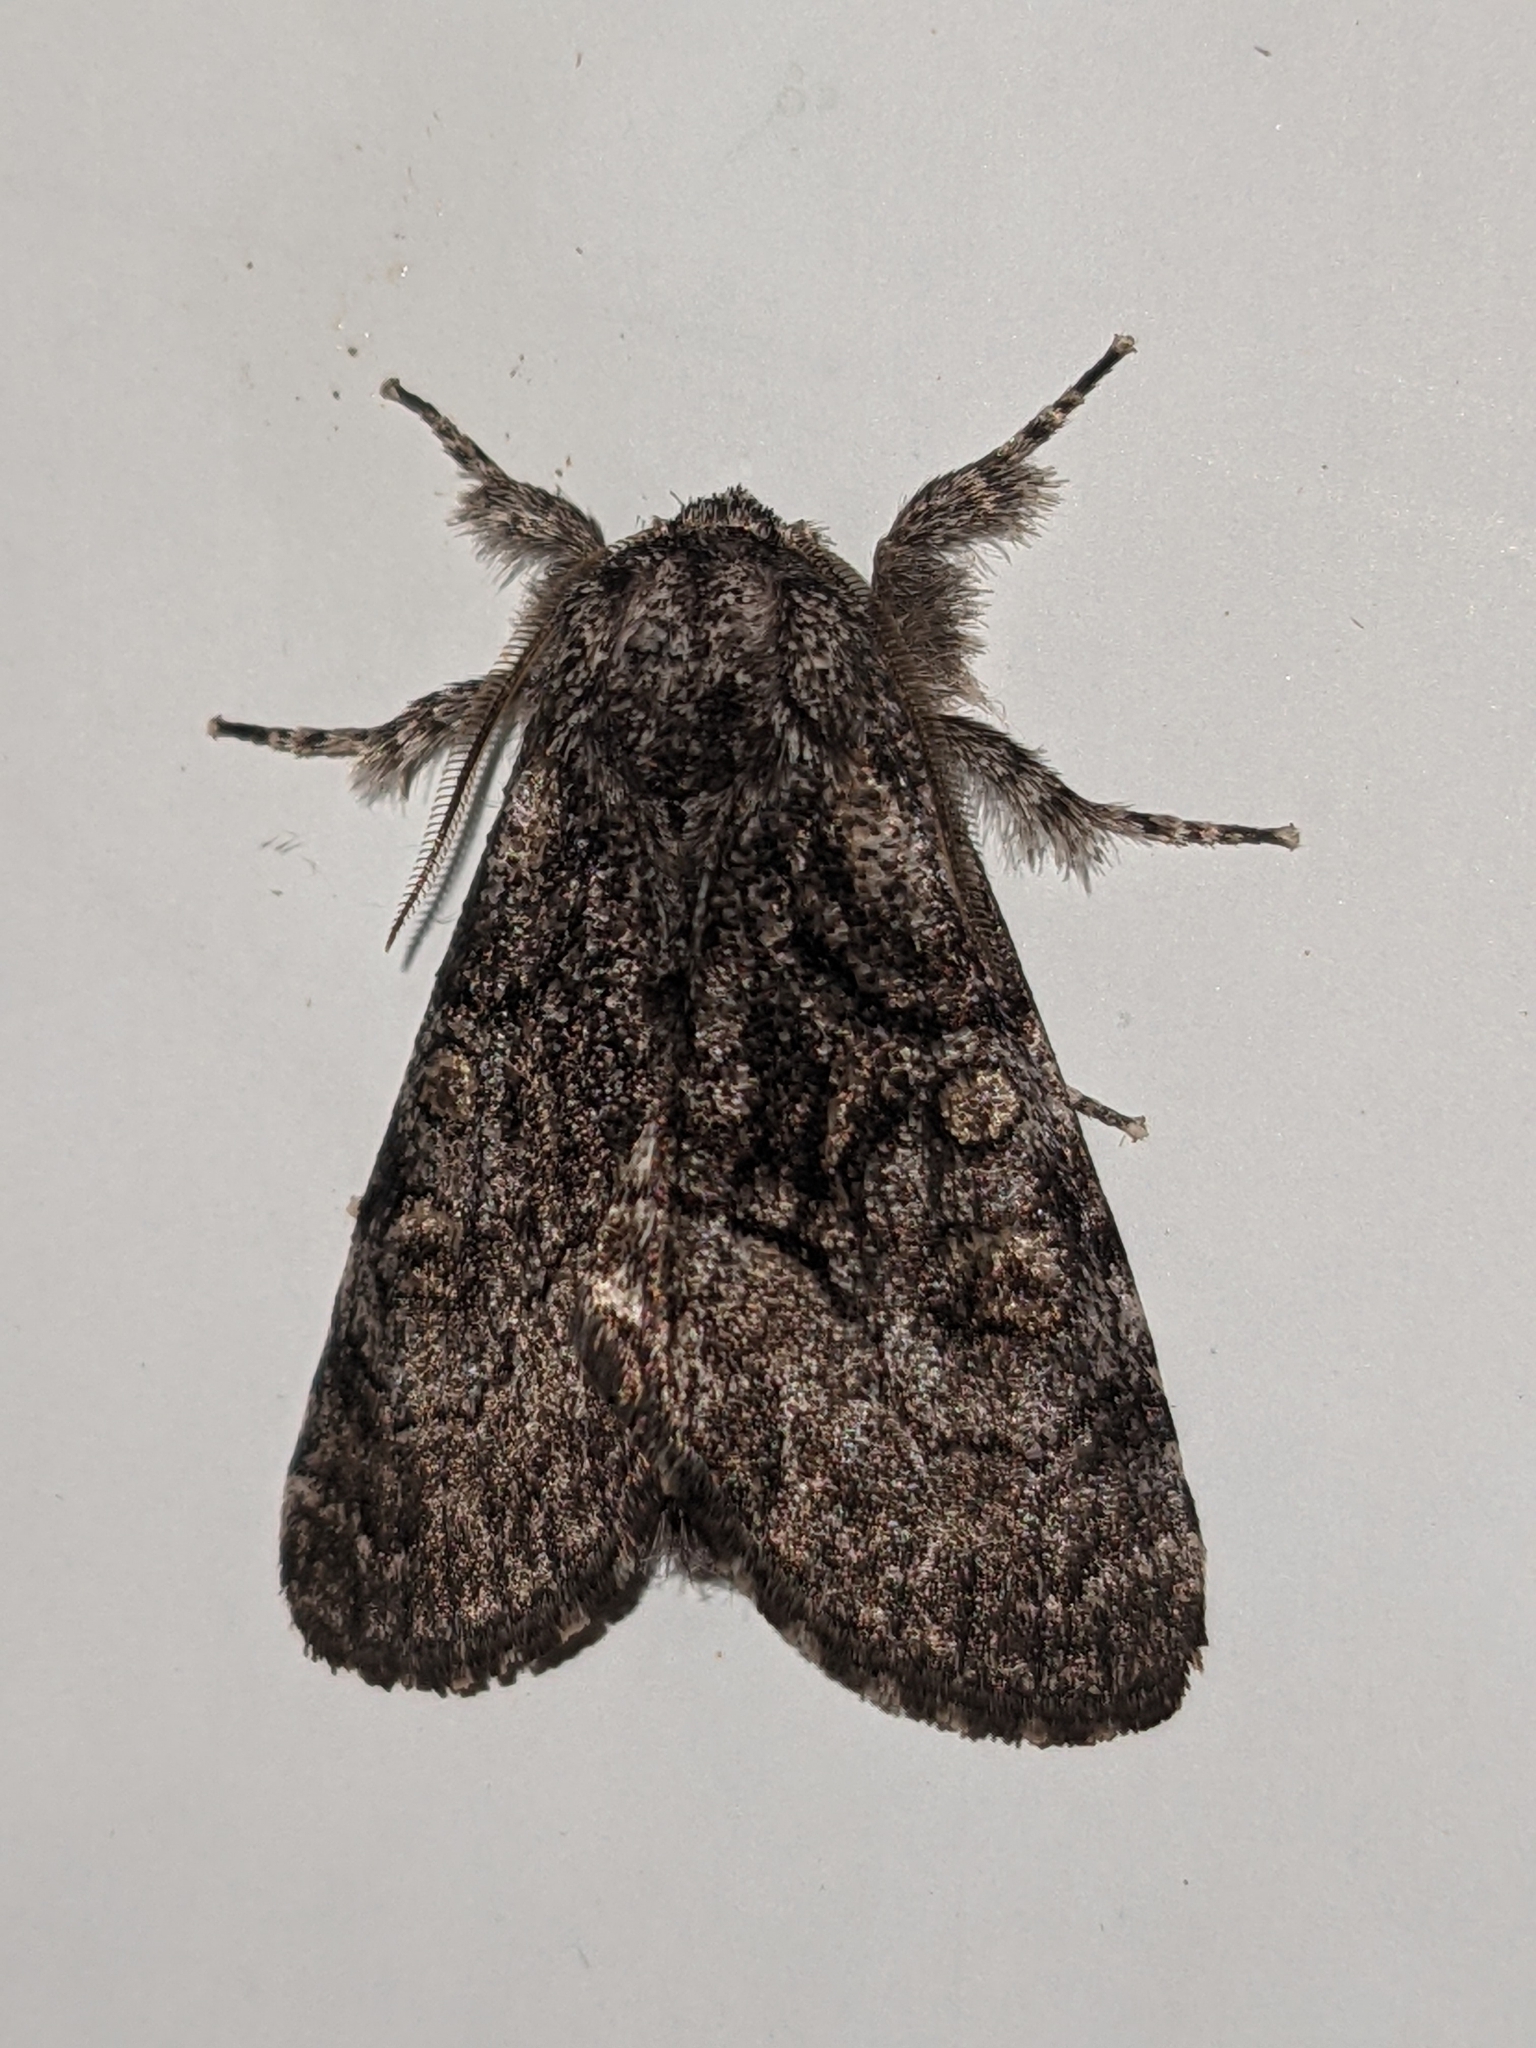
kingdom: Animalia
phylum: Arthropoda
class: Insecta
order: Lepidoptera
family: Noctuidae
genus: Raphia
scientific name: Raphia frater
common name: Brother
